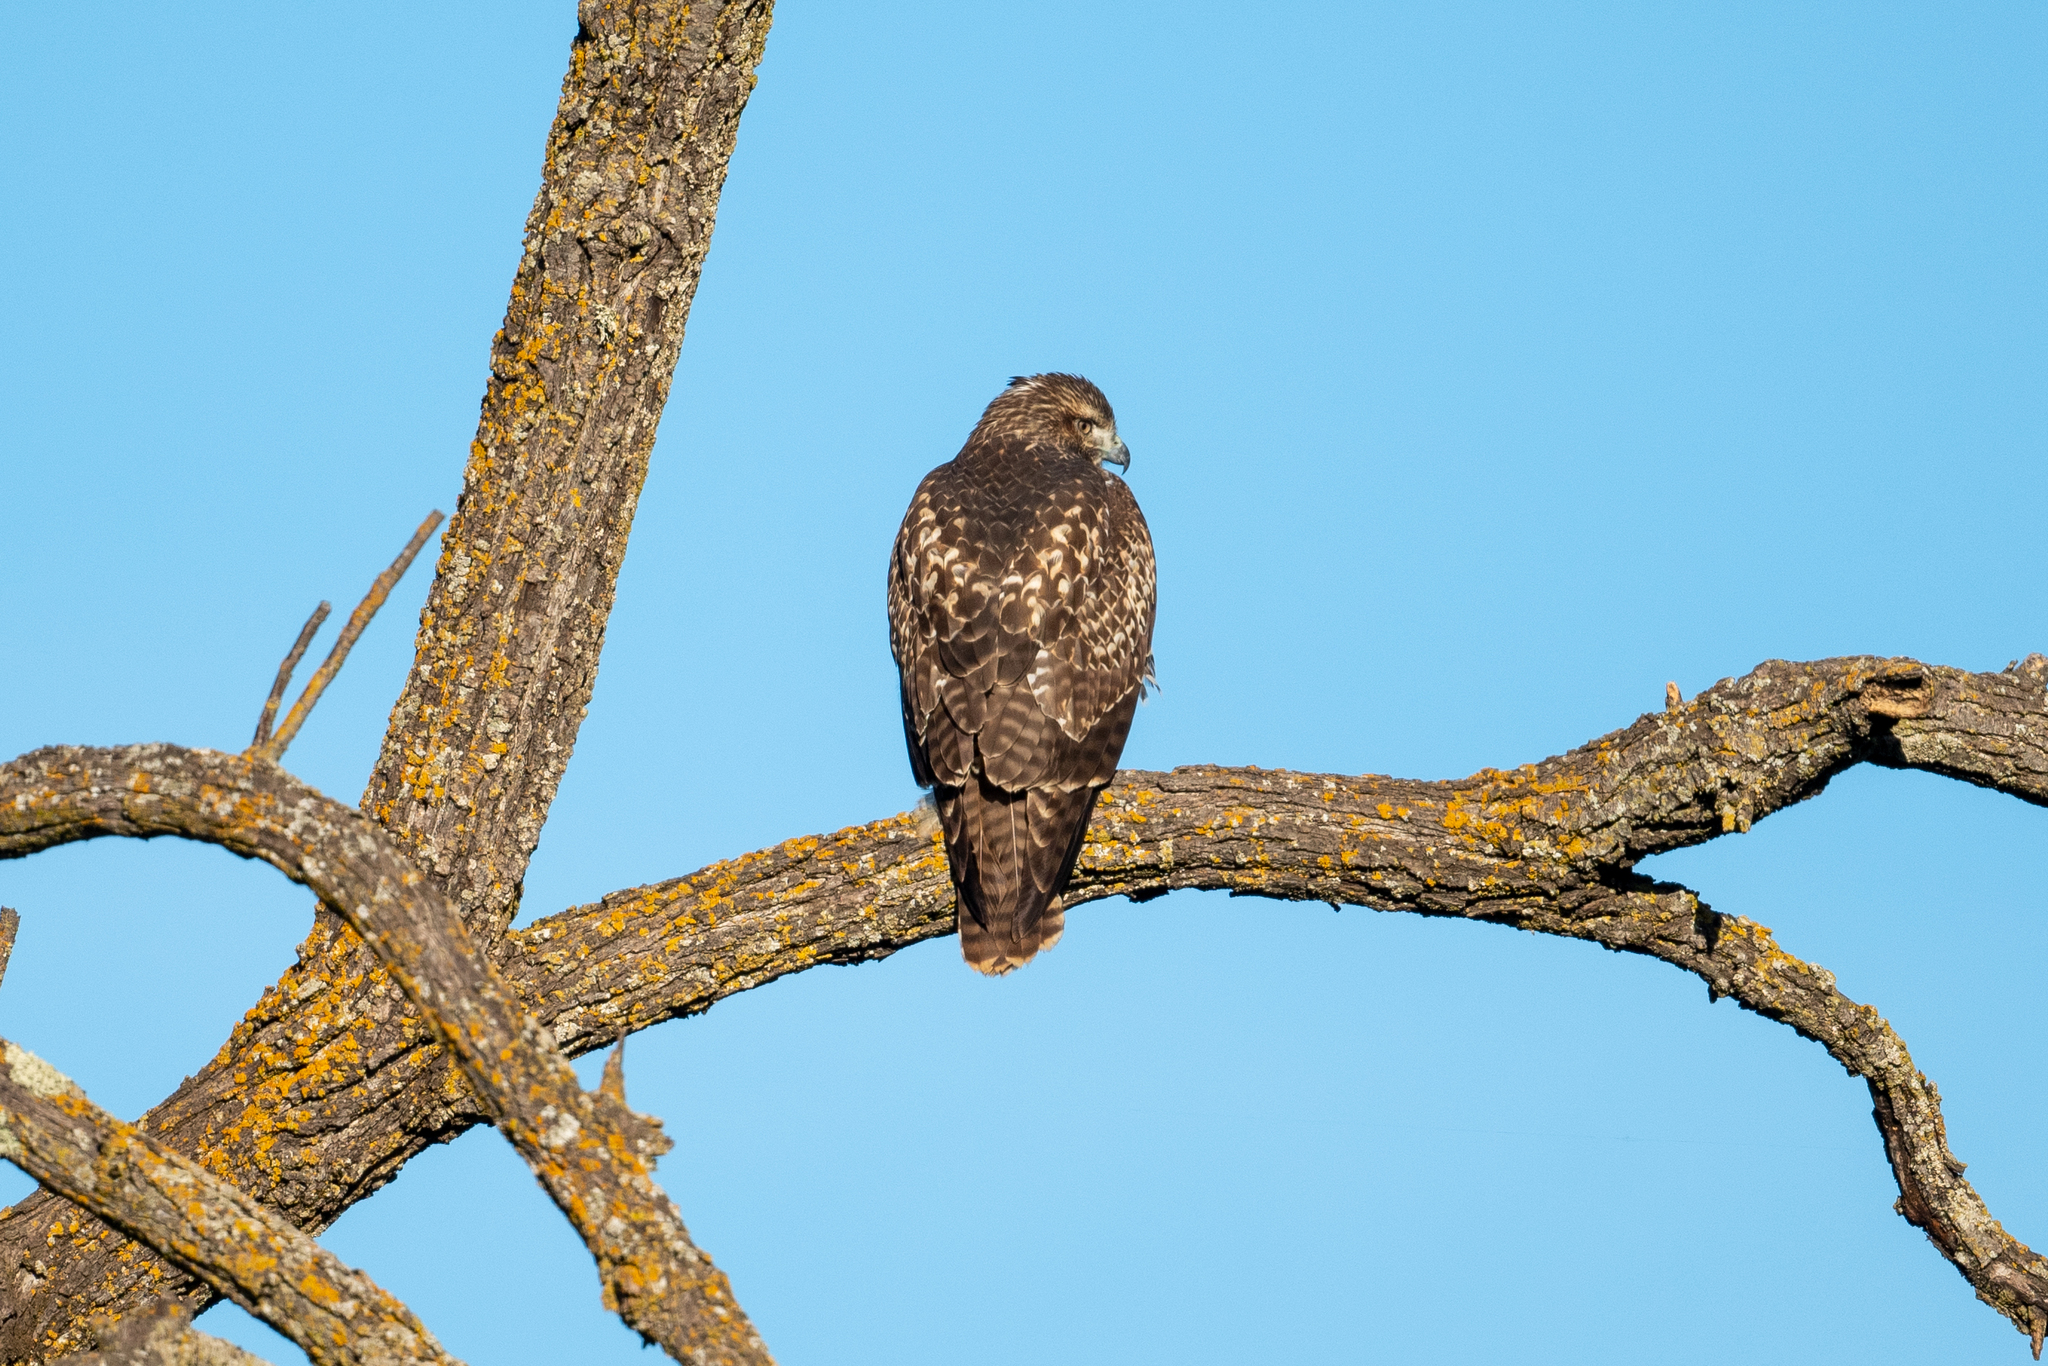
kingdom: Animalia
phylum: Chordata
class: Aves
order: Accipitriformes
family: Accipitridae
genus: Buteo
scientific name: Buteo jamaicensis
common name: Red-tailed hawk
